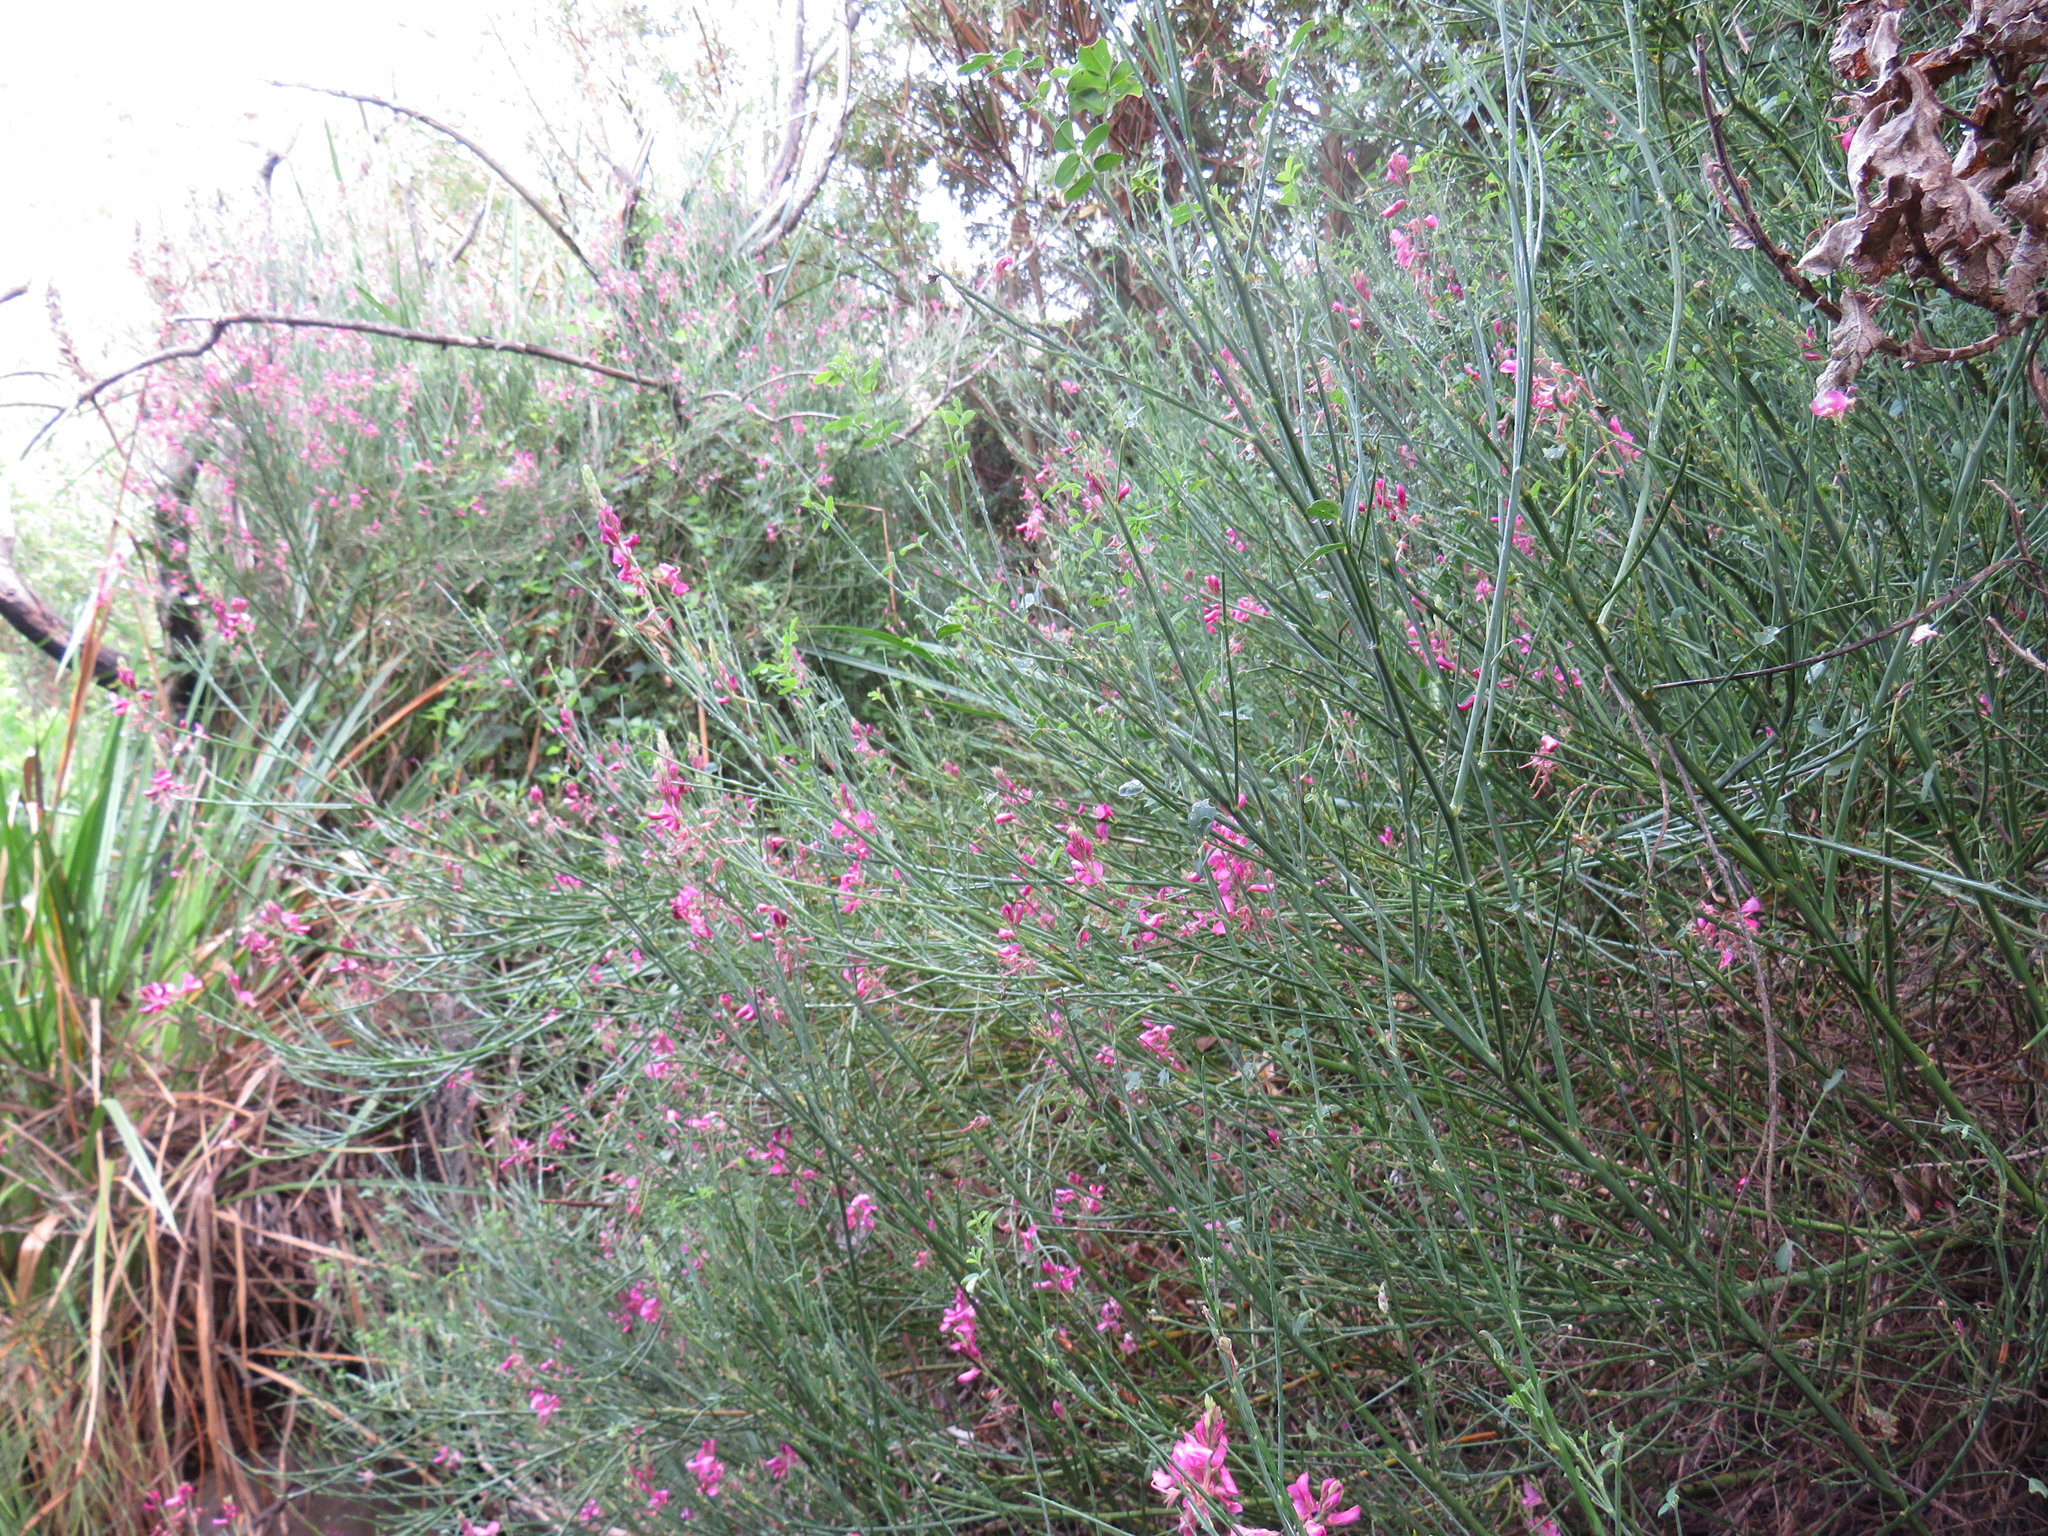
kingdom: Plantae
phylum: Tracheophyta
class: Magnoliopsida
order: Fabales
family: Fabaceae
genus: Indigofera
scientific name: Indigofera filifolia
